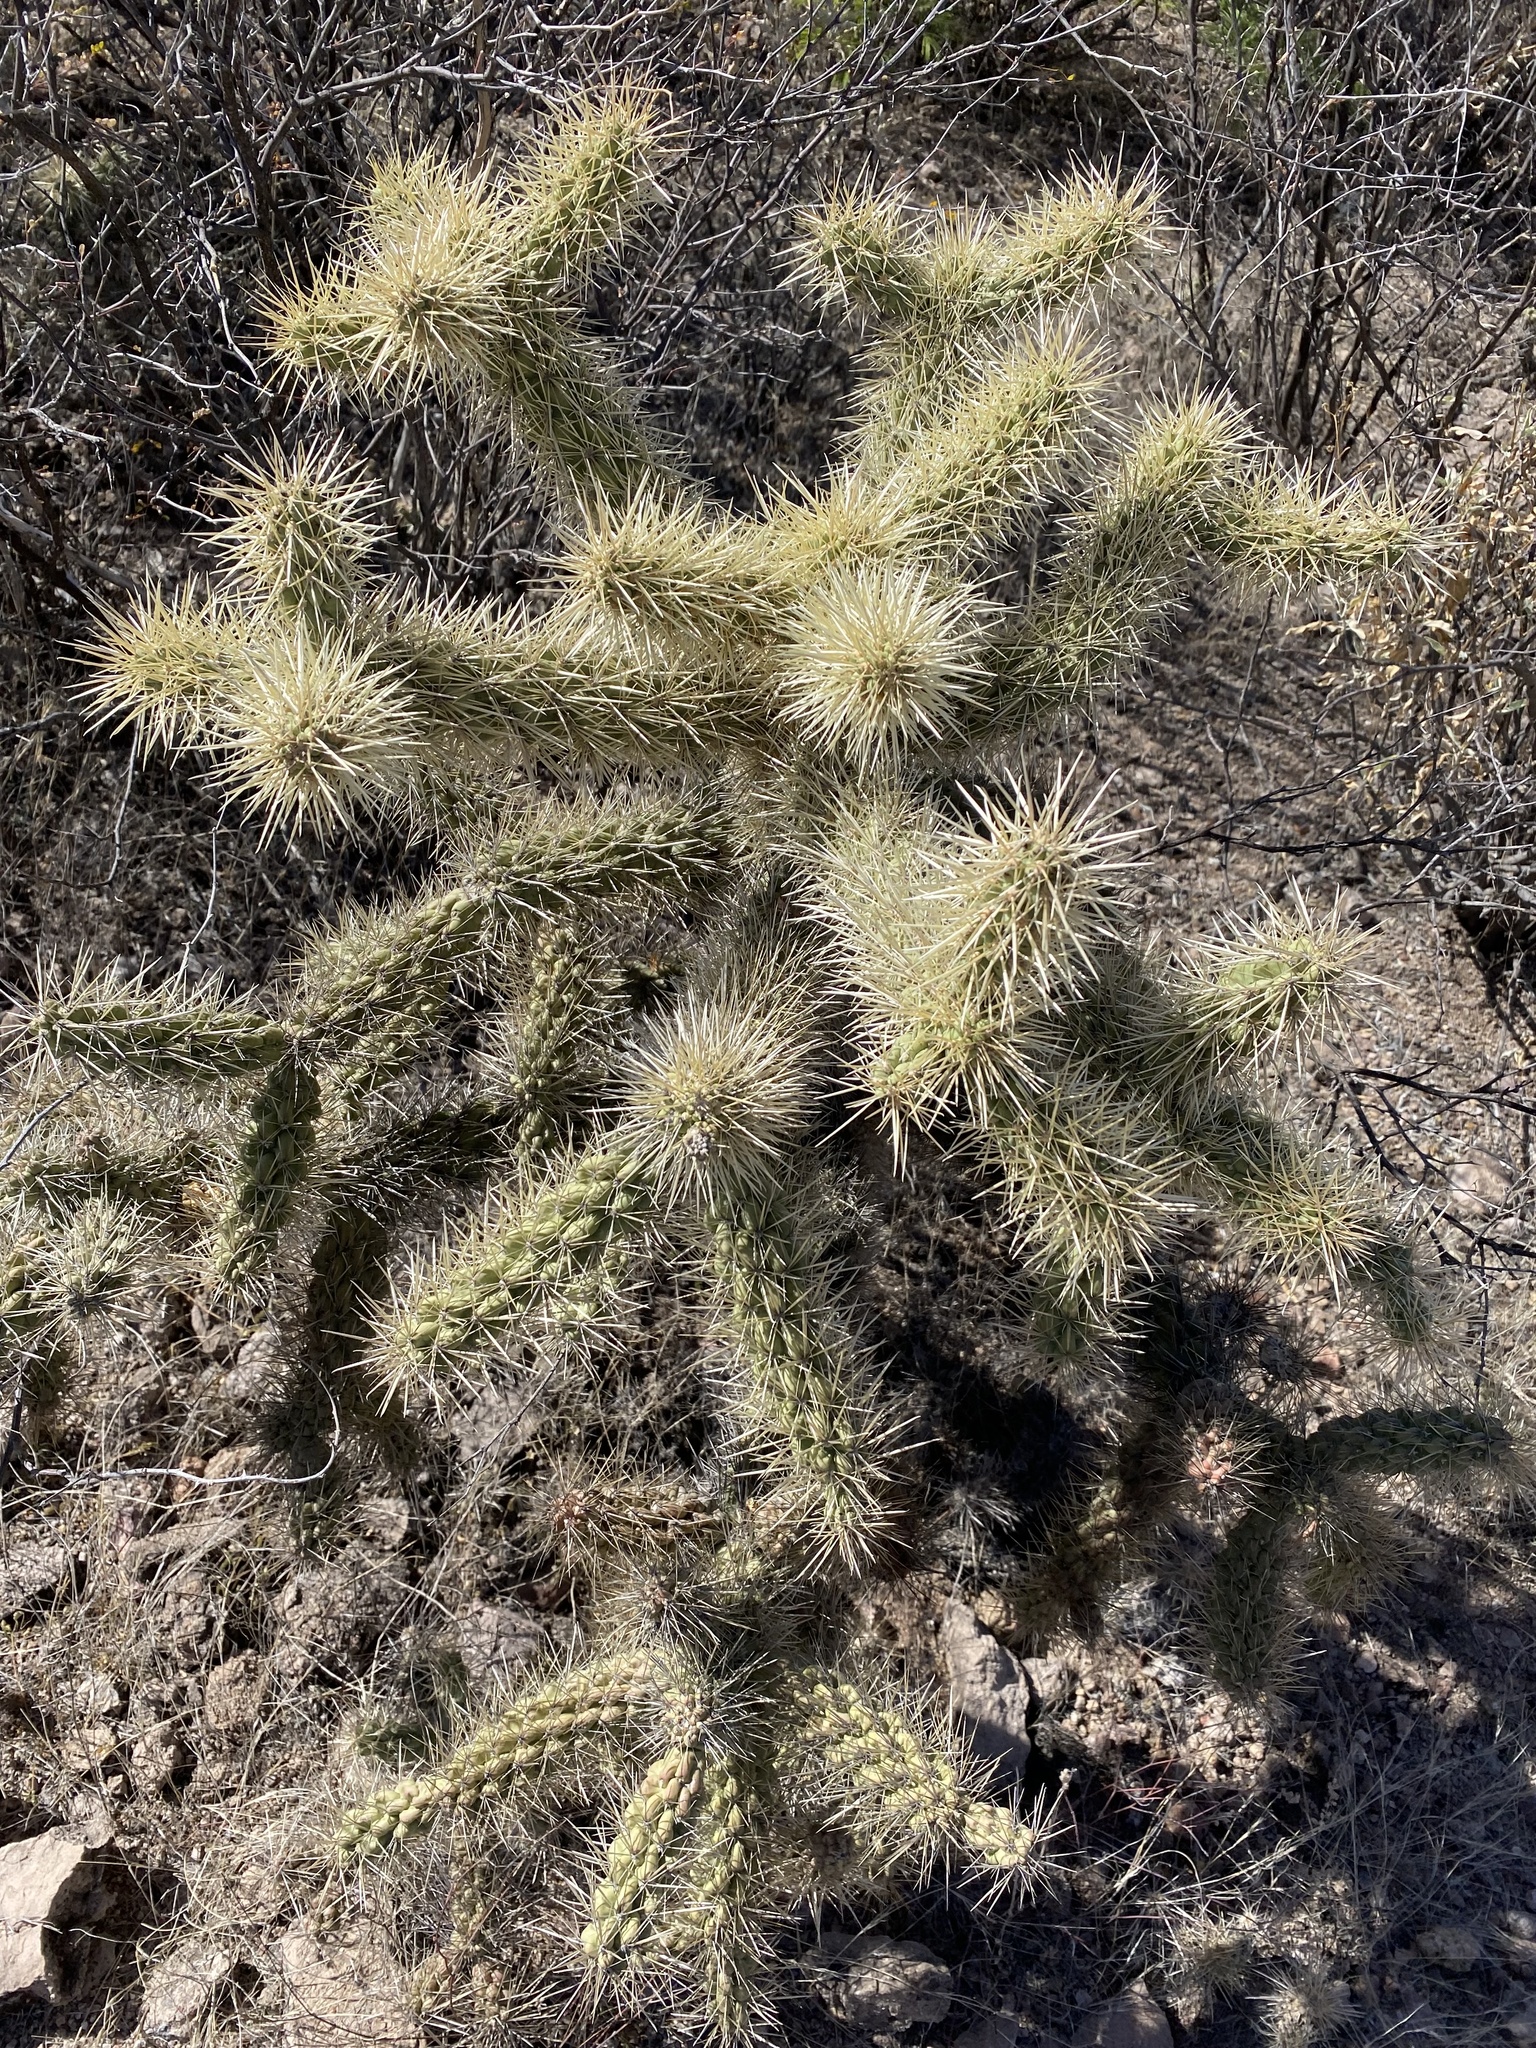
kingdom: Plantae
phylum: Tracheophyta
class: Magnoliopsida
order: Caryophyllales
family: Cactaceae
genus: Cylindropuntia
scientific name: Cylindropuntia fosbergii
